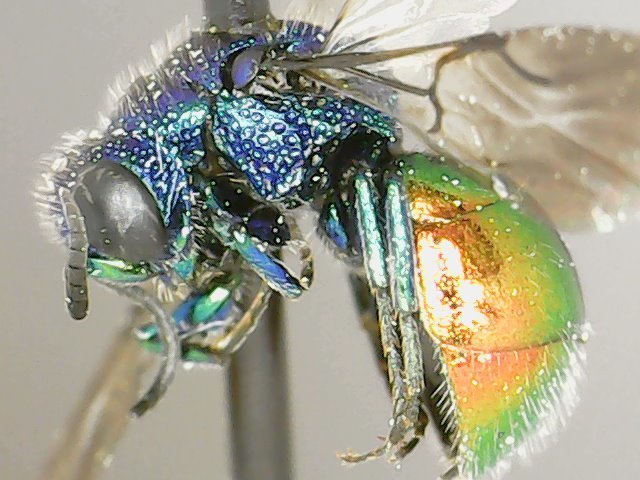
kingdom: Animalia
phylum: Arthropoda
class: Insecta
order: Hymenoptera
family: Chrysididae
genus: Pseudomalus
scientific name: Pseudomalus auratus
